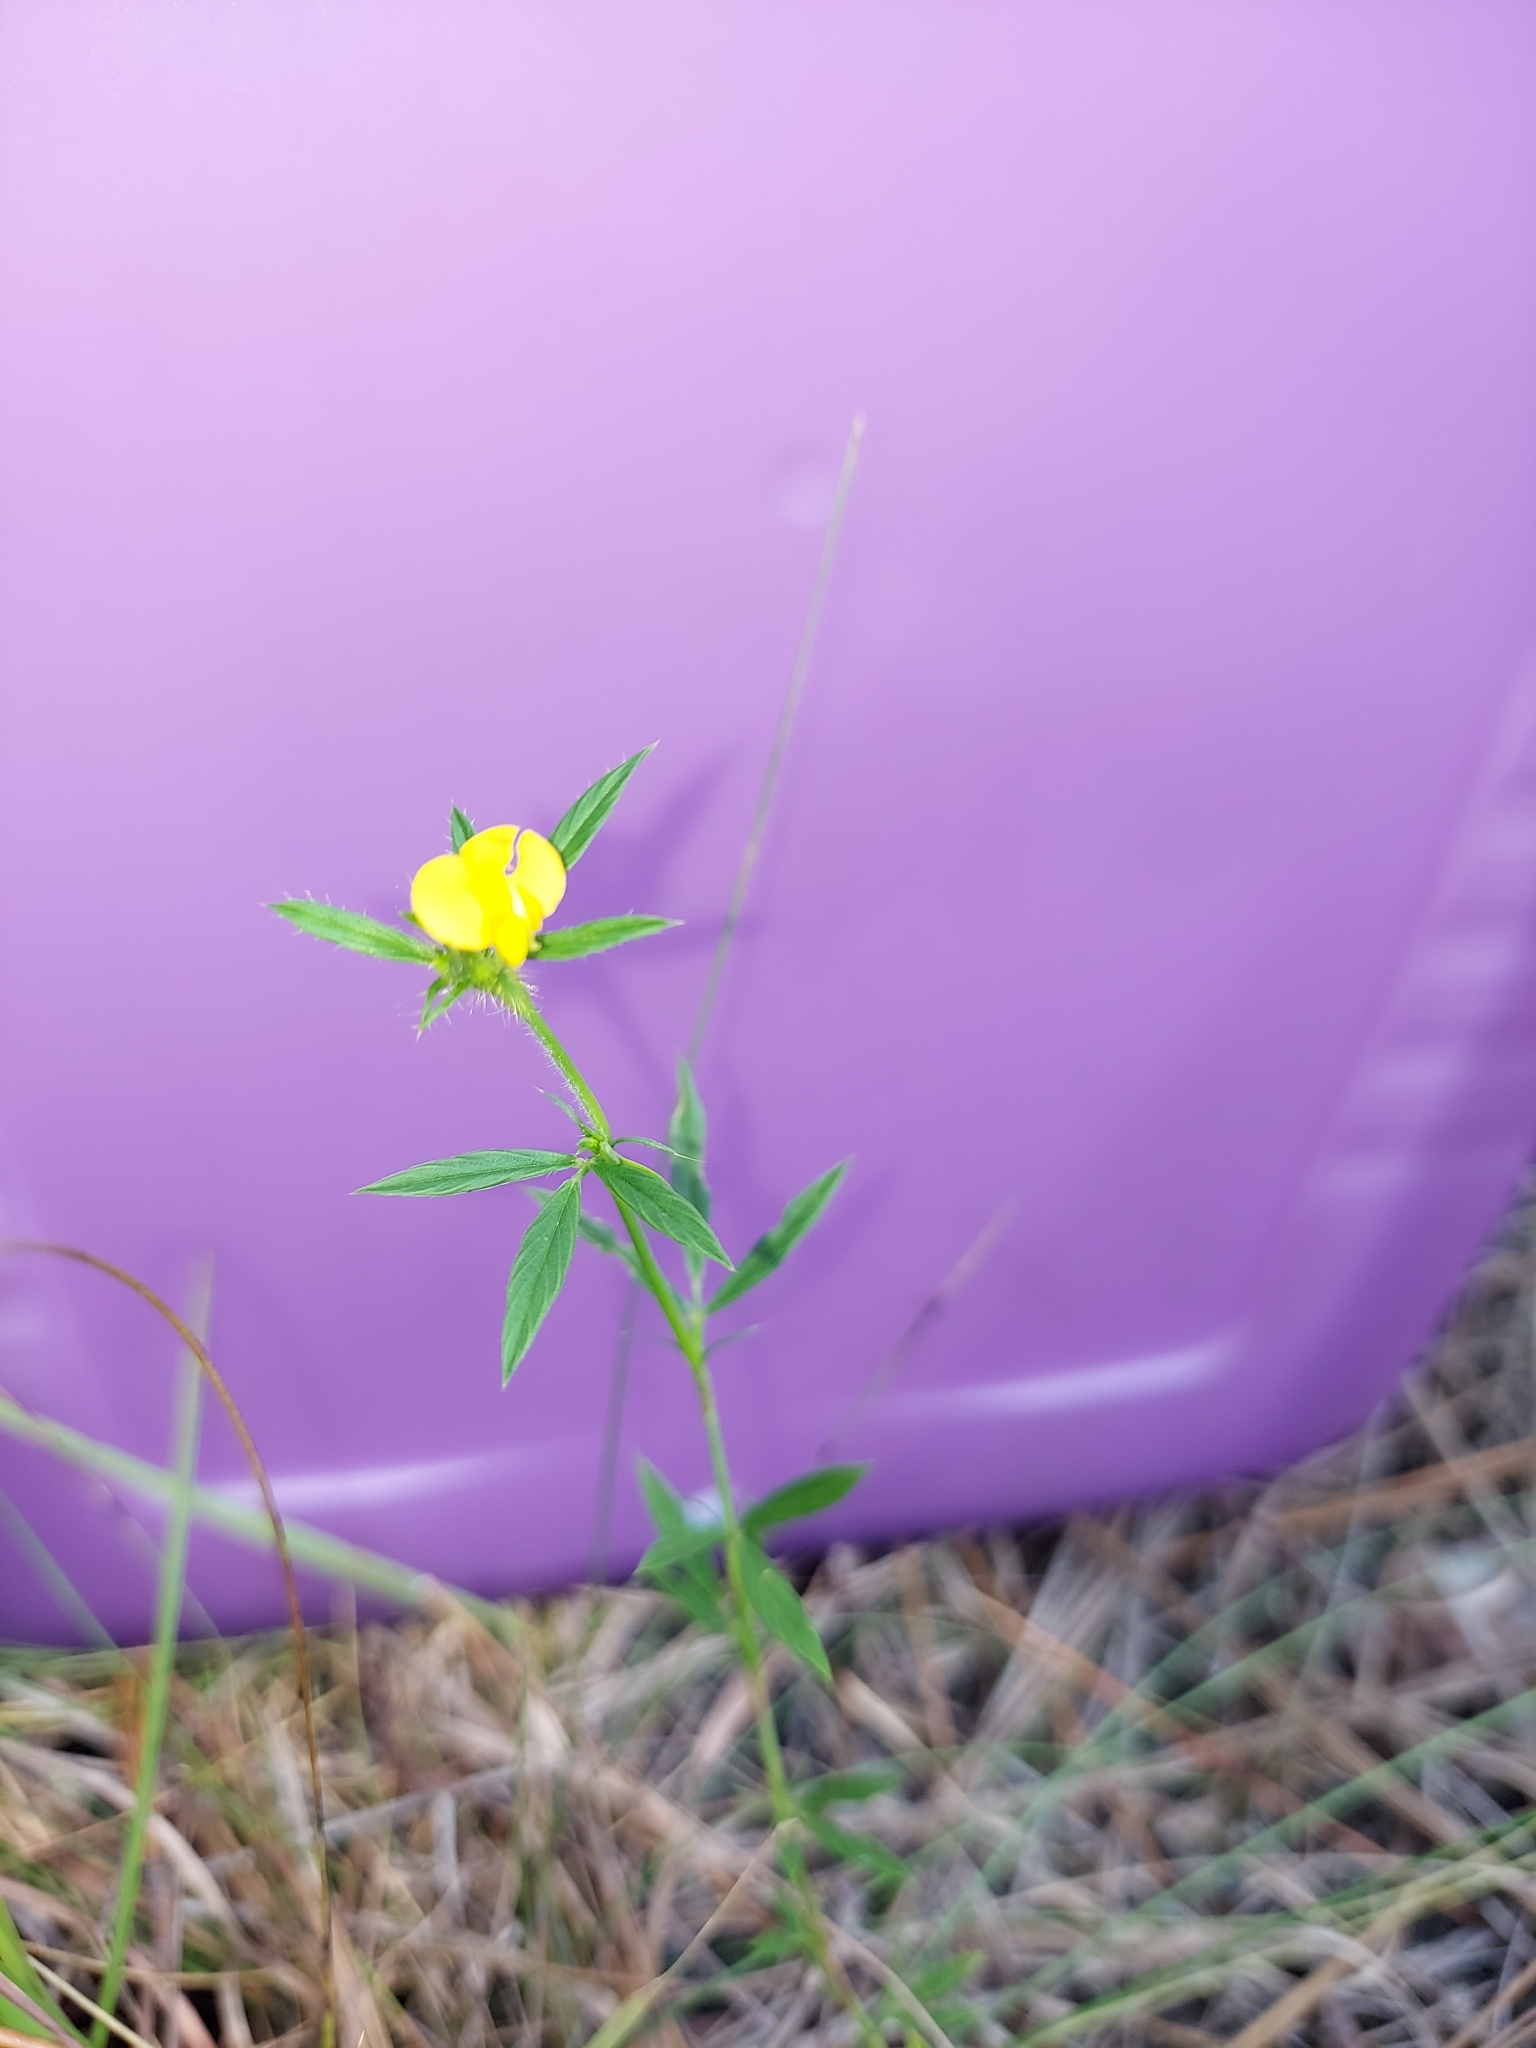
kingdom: Plantae
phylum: Tracheophyta
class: Magnoliopsida
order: Fabales
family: Fabaceae
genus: Stylosanthes
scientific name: Stylosanthes biflora
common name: Two-flower pencil-flower
